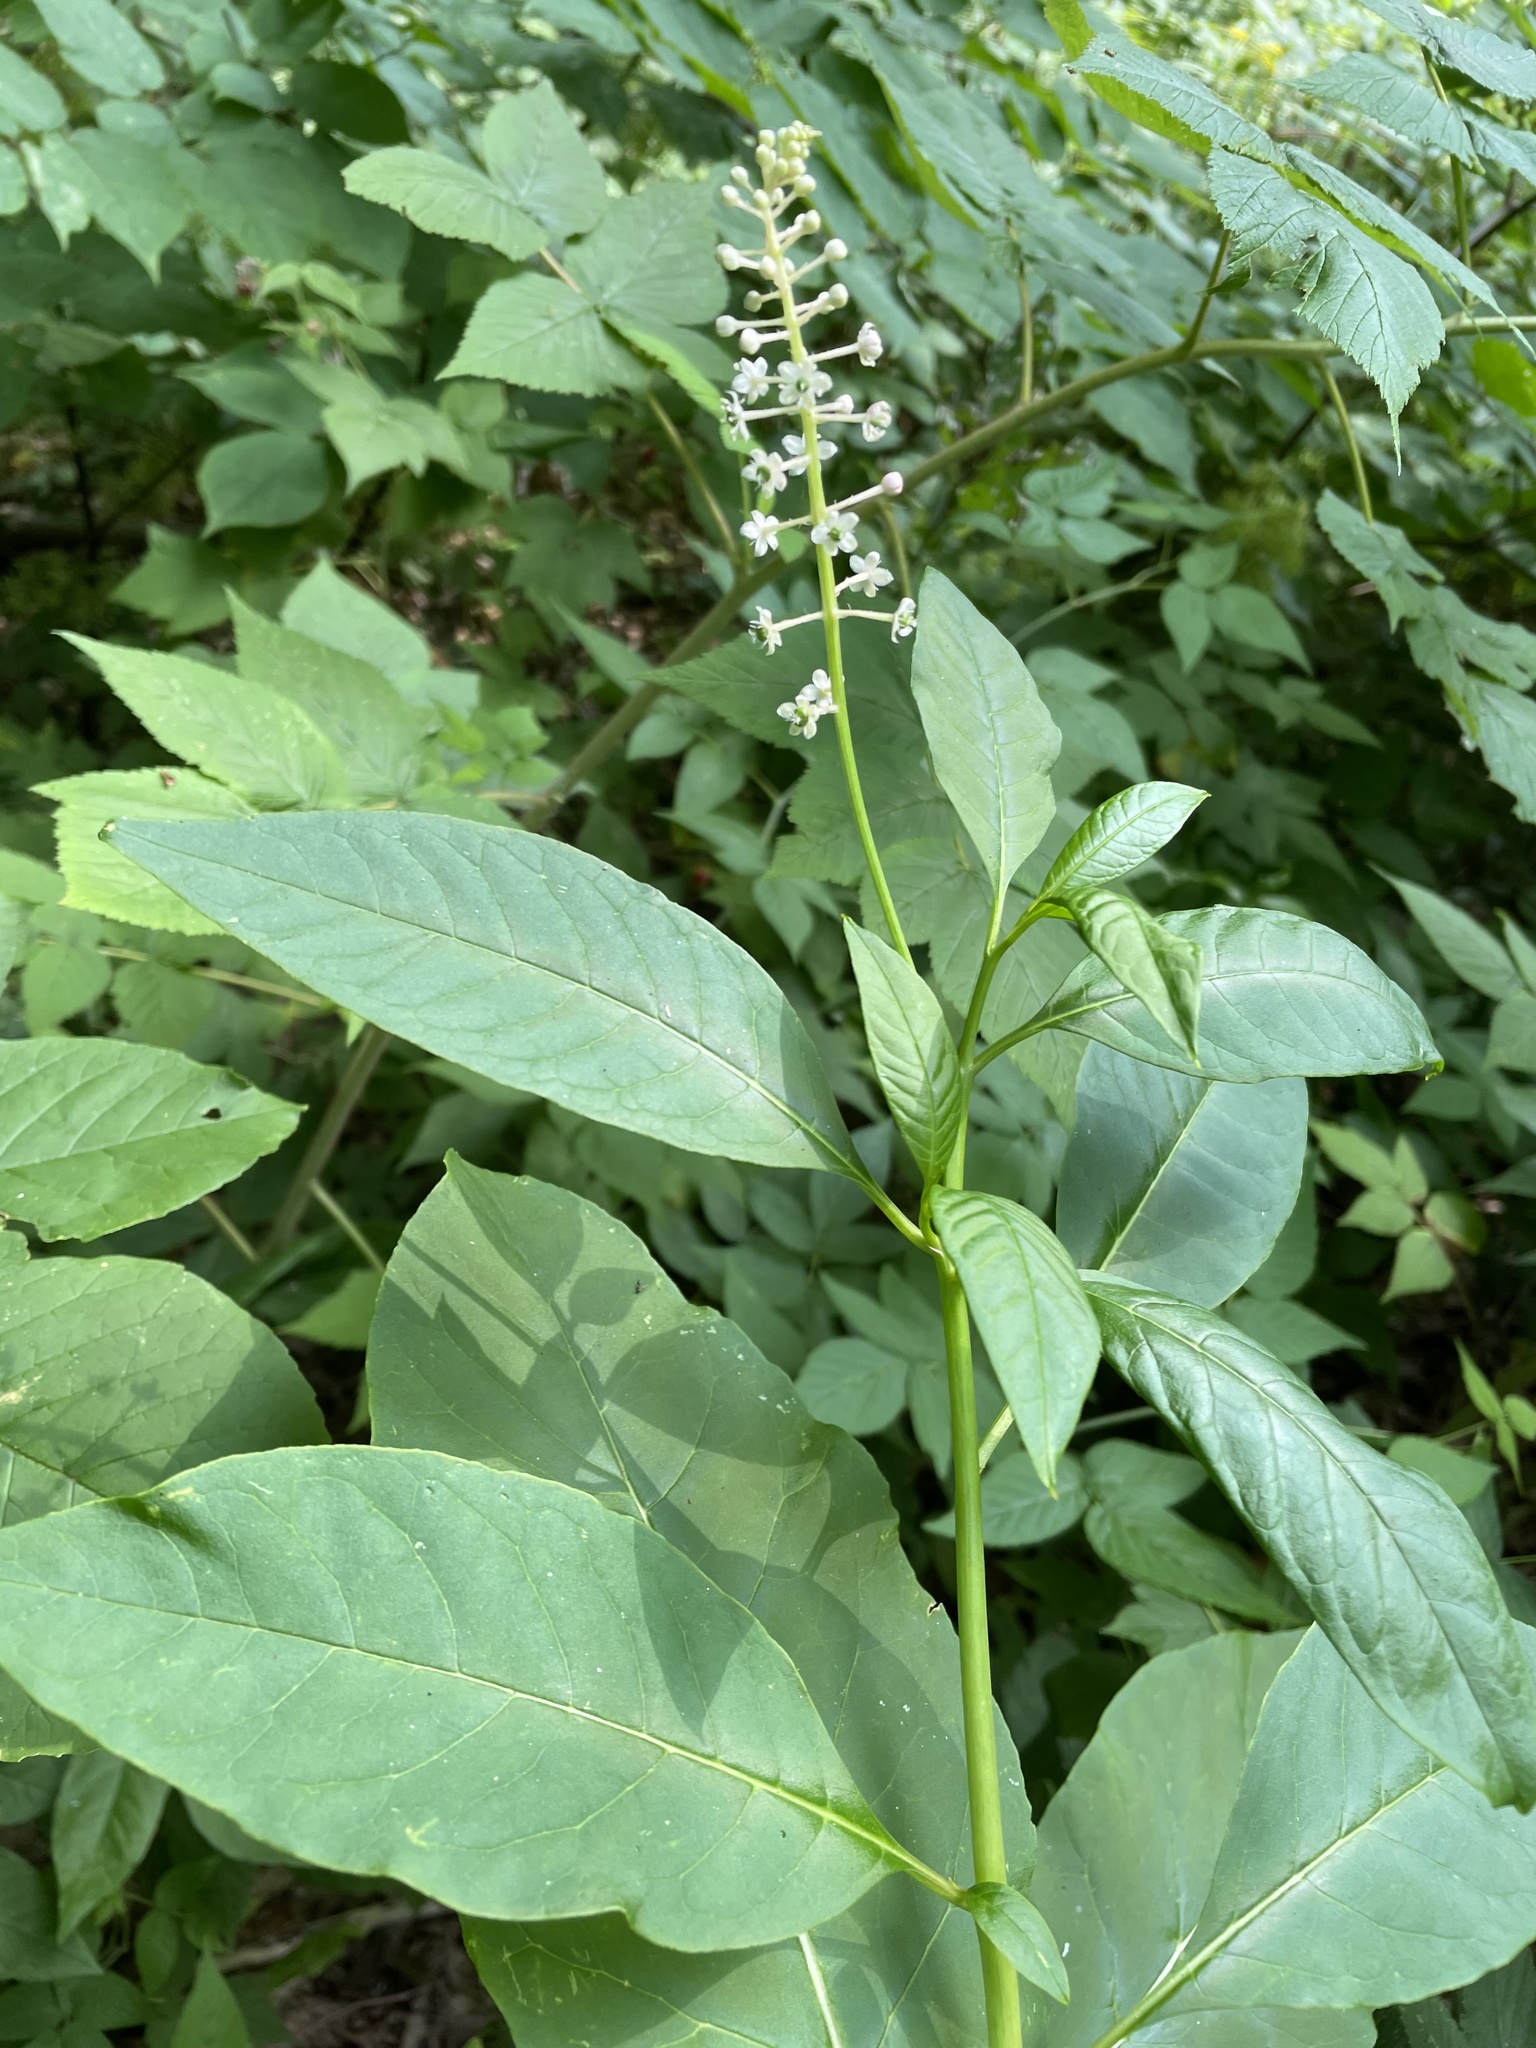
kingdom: Plantae
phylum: Tracheophyta
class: Magnoliopsida
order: Caryophyllales
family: Phytolaccaceae
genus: Phytolacca
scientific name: Phytolacca americana
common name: American pokeweed
